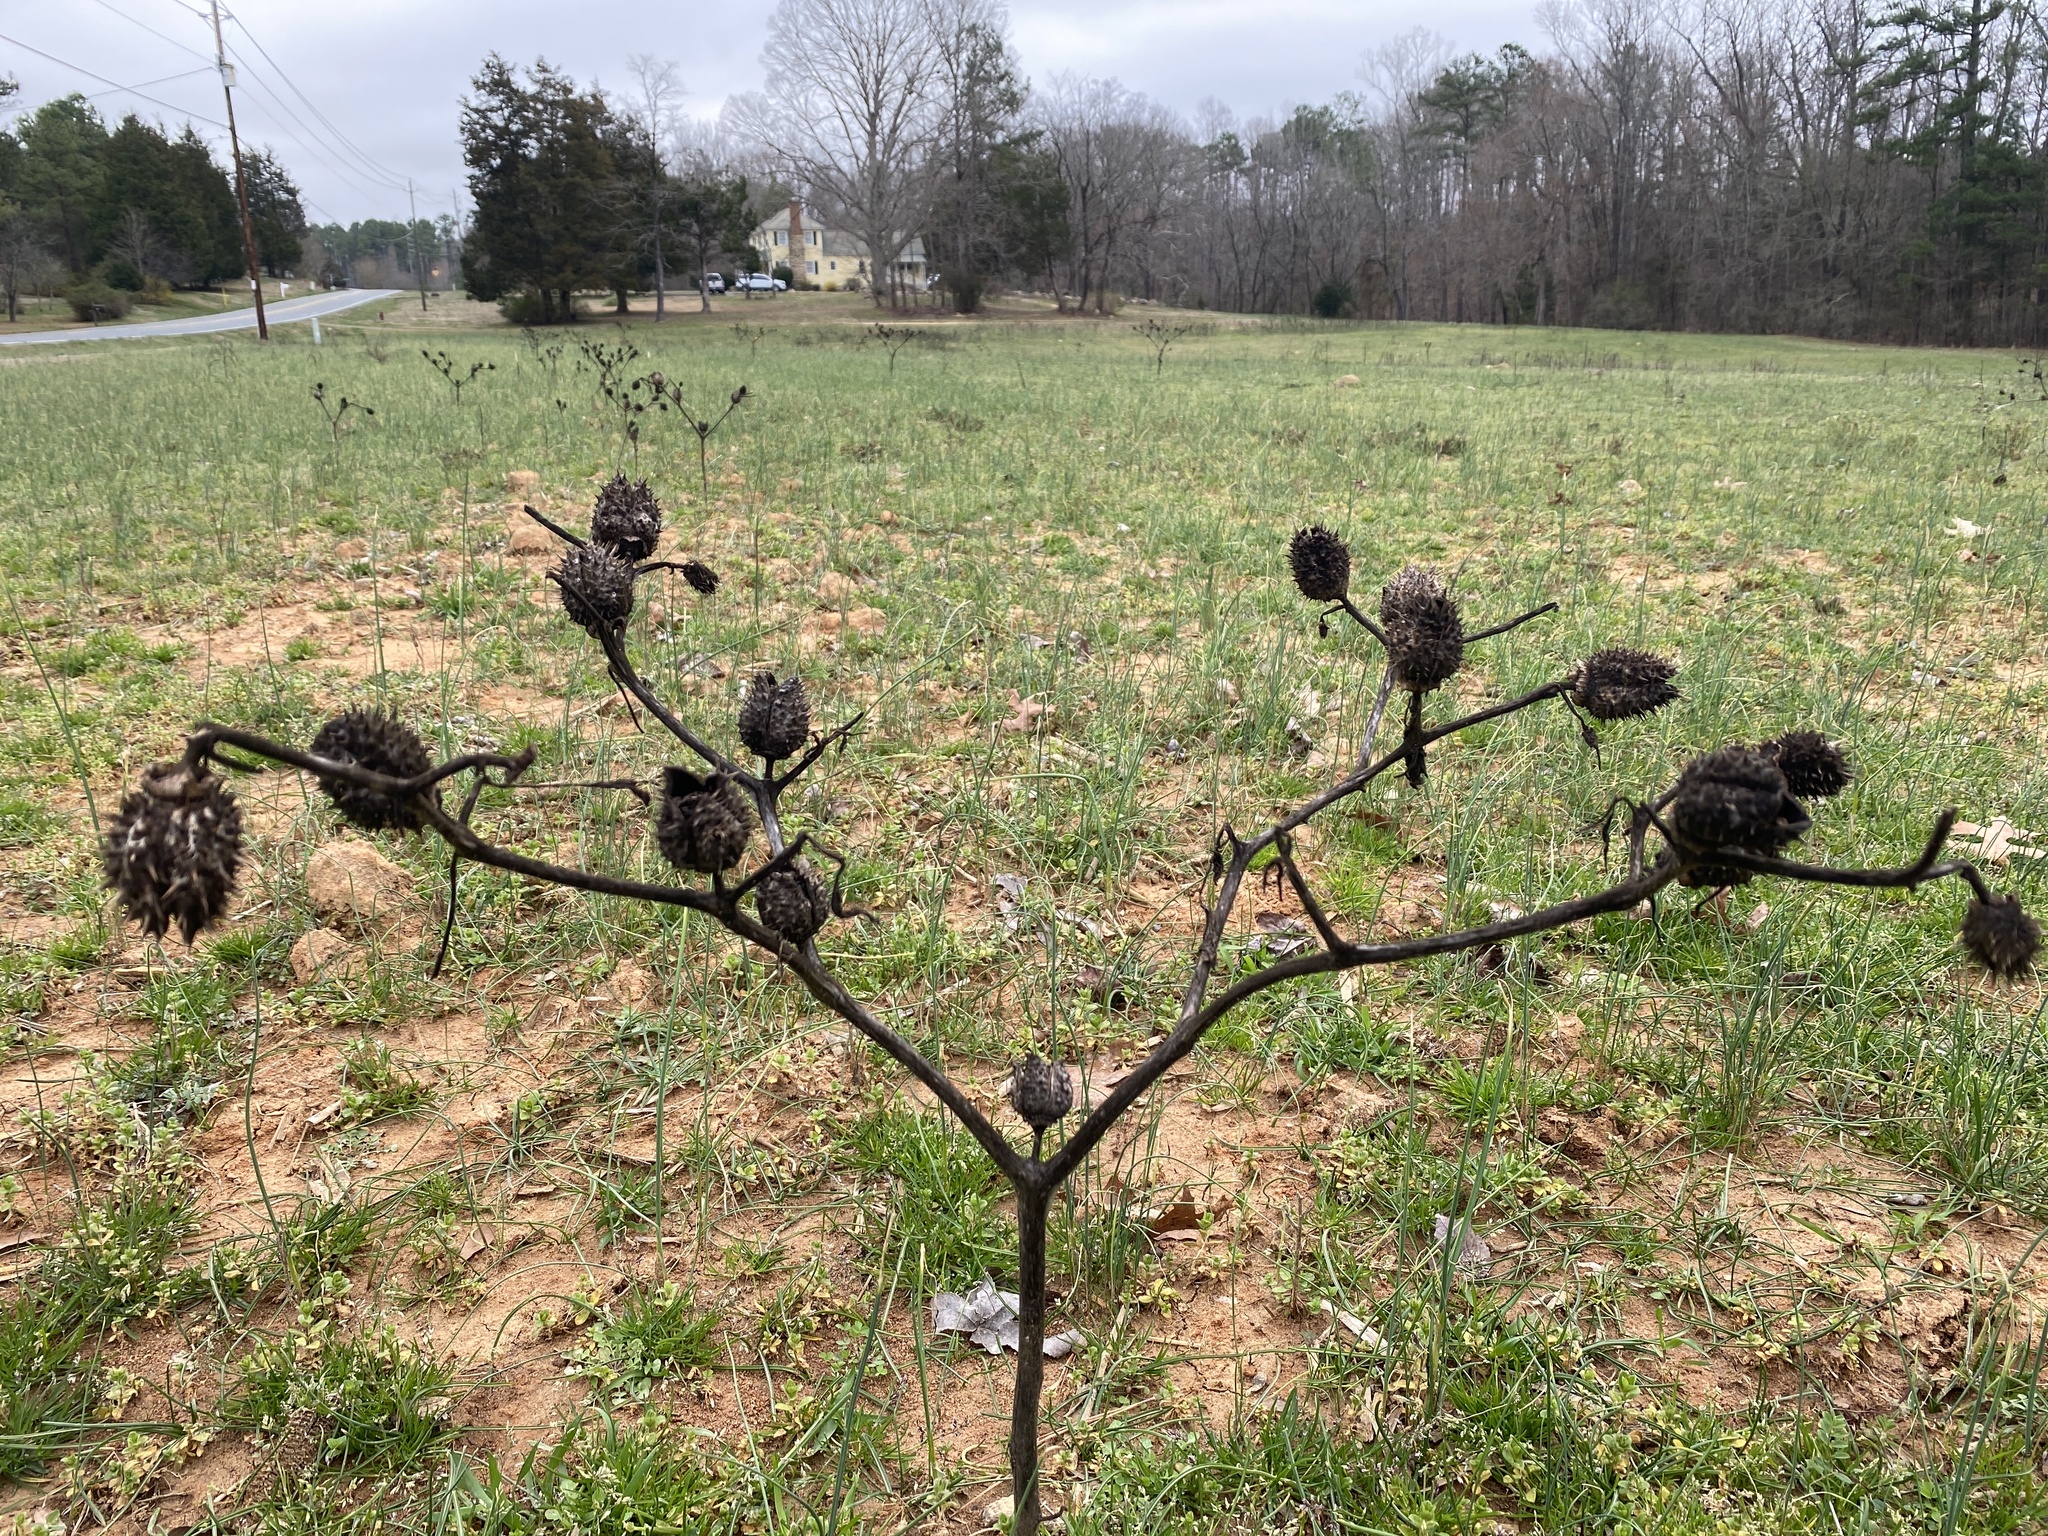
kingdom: Plantae
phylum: Tracheophyta
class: Magnoliopsida
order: Solanales
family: Solanaceae
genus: Datura
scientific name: Datura stramonium
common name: Thorn-apple
